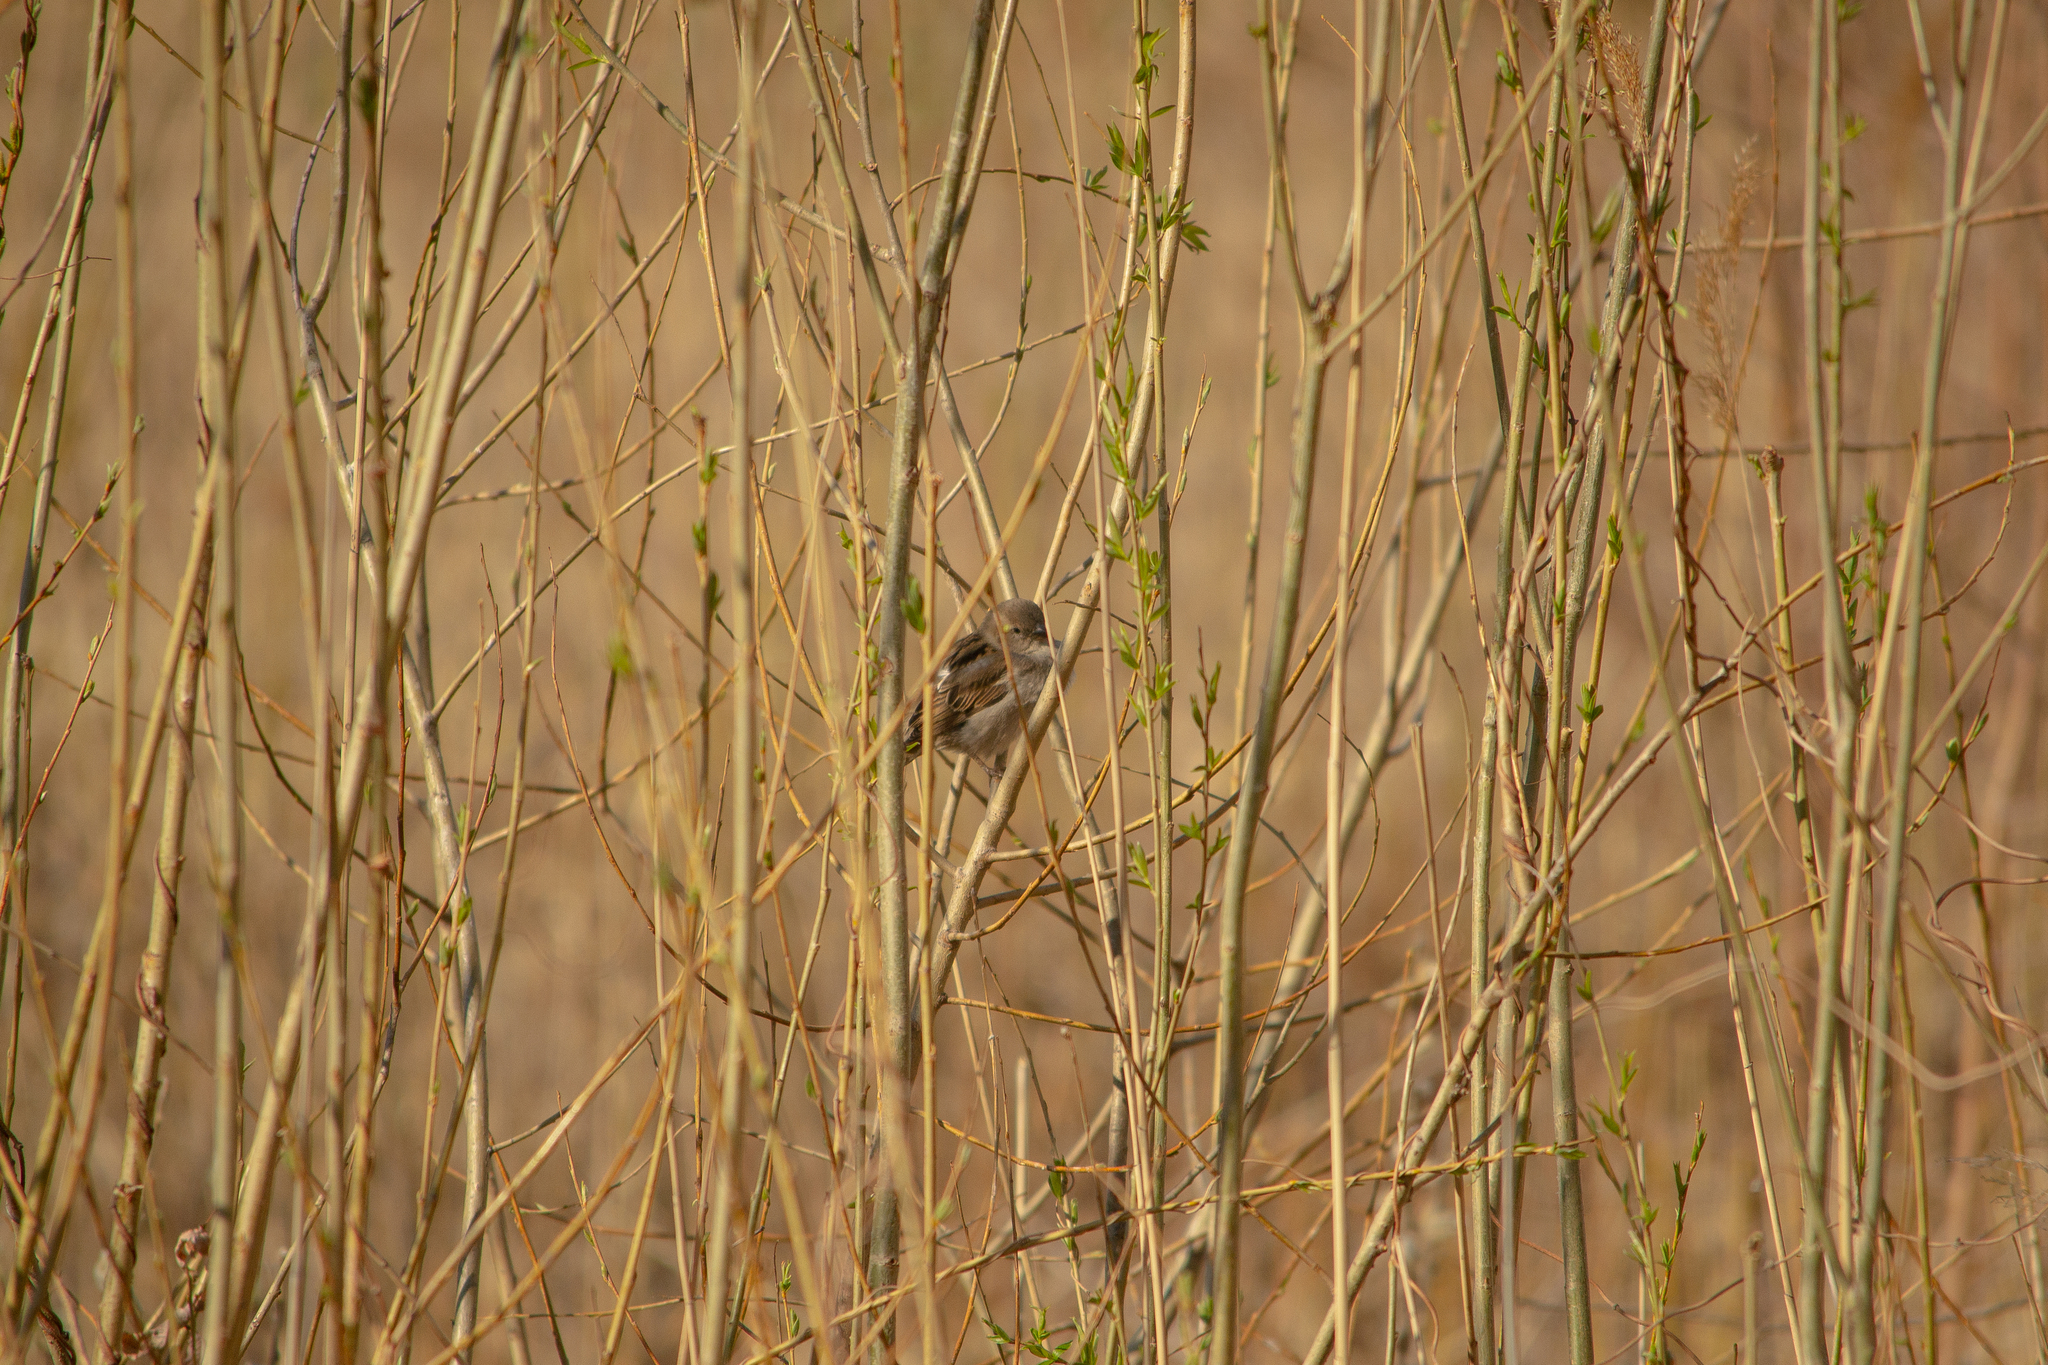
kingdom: Animalia
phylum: Chordata
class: Aves
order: Passeriformes
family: Passeridae
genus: Passer
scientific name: Passer domesticus
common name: House sparrow
